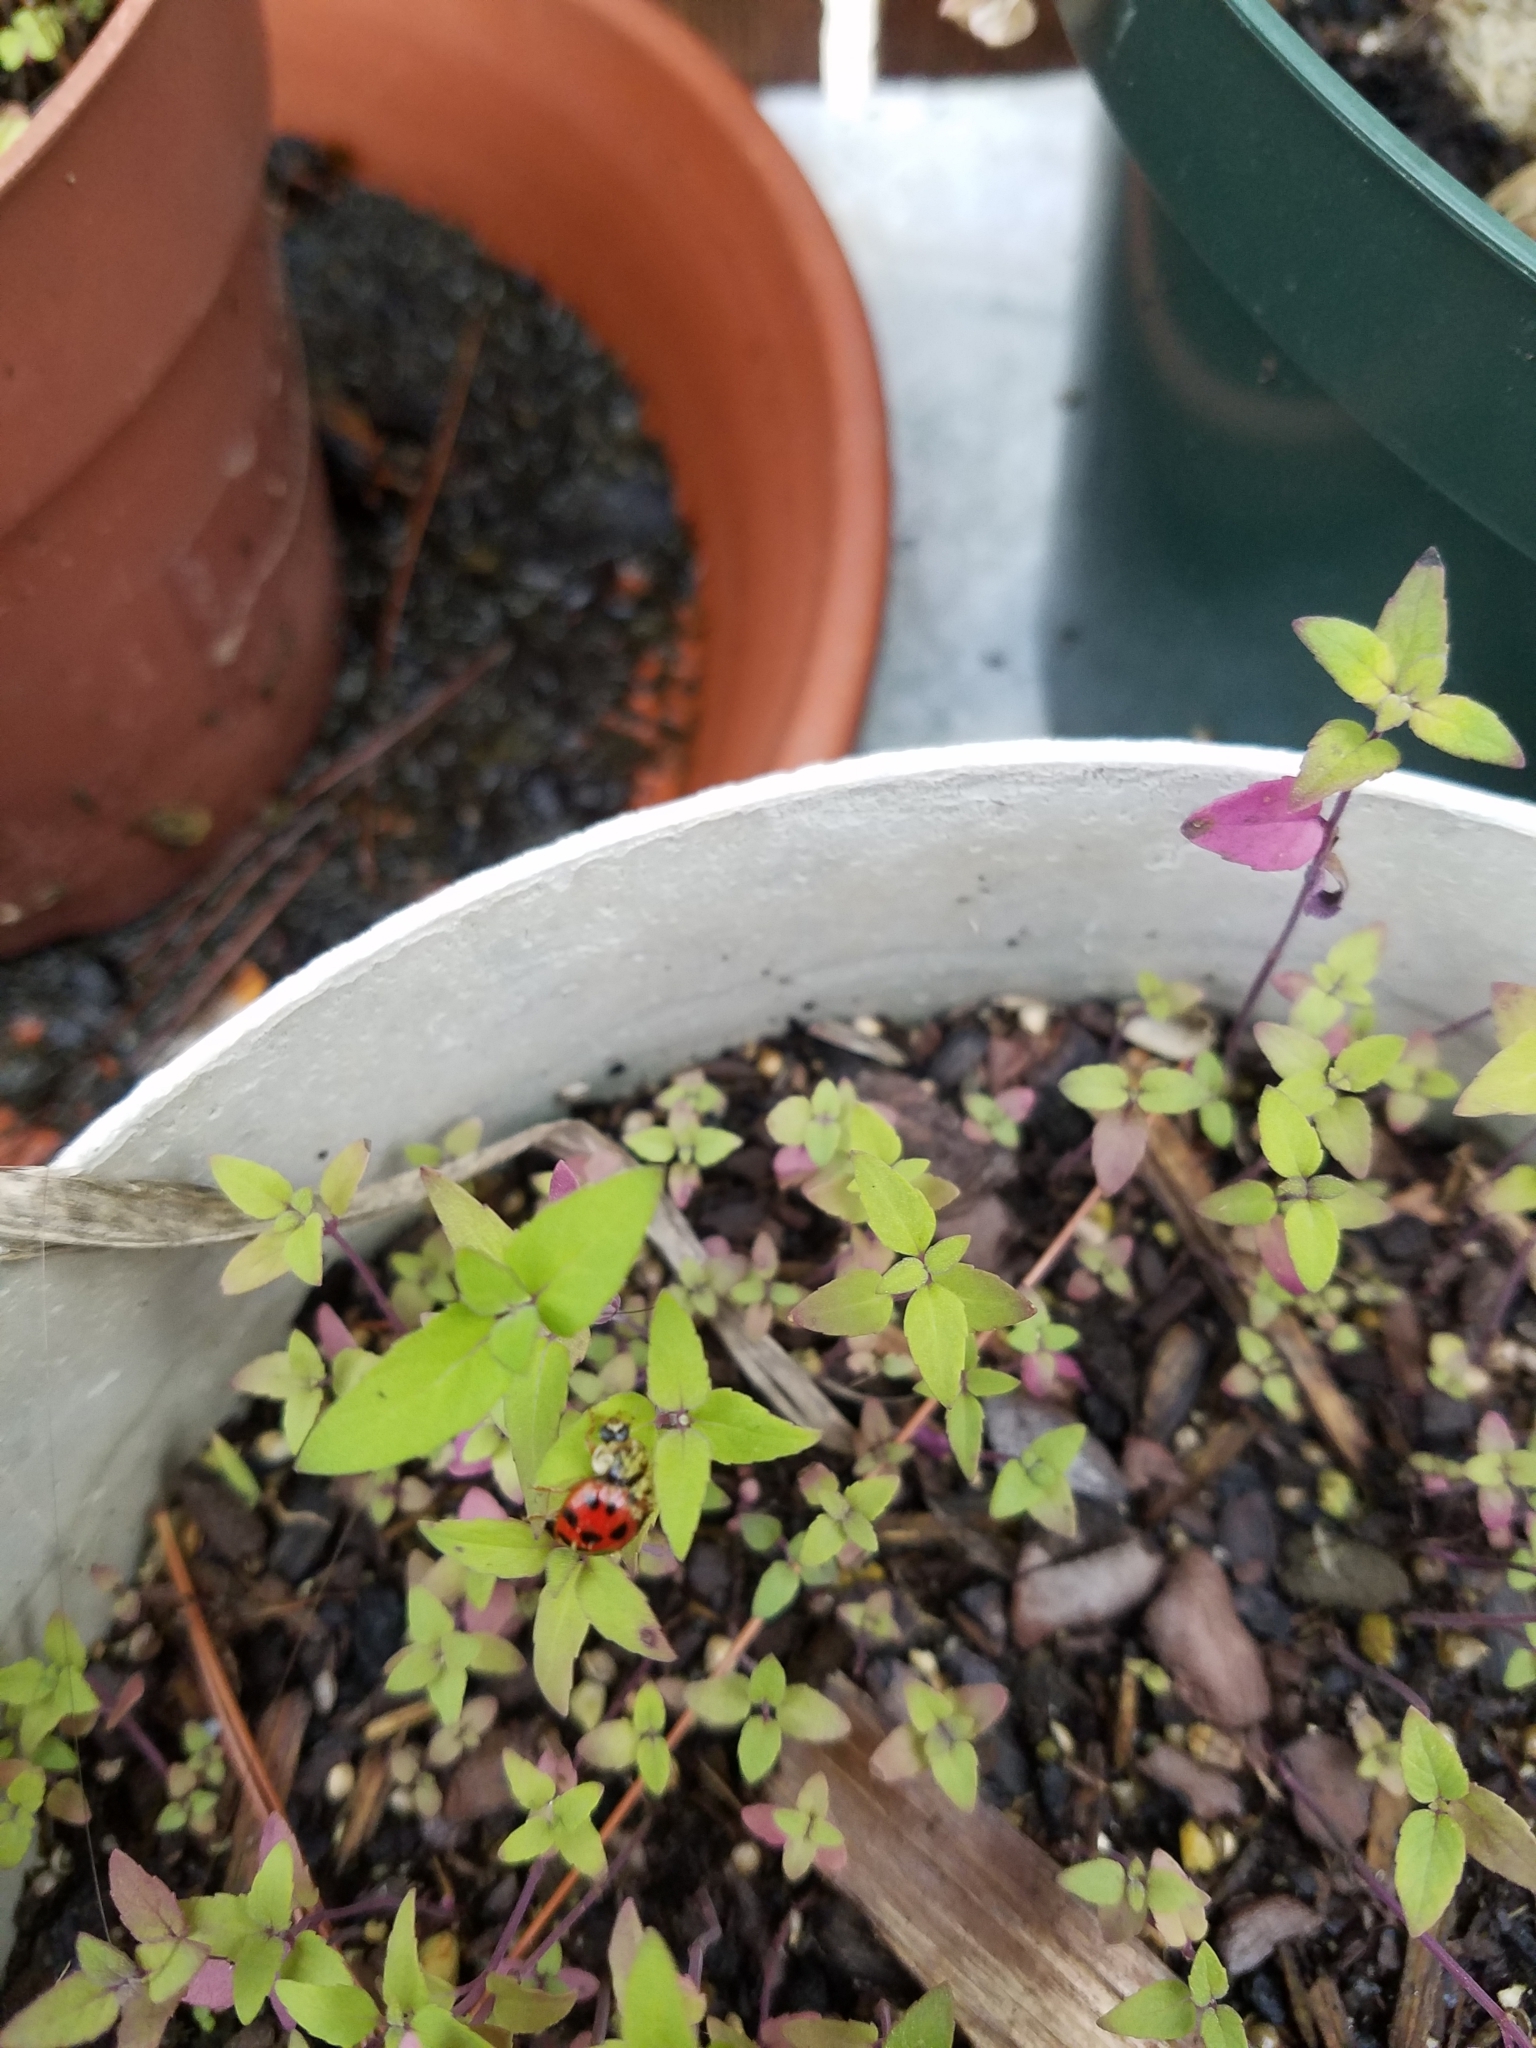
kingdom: Fungi
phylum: Ascomycota
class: Laboulbeniomycetes
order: Laboulbeniales
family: Laboulbeniaceae
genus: Hesperomyces
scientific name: Hesperomyces harmoniae
